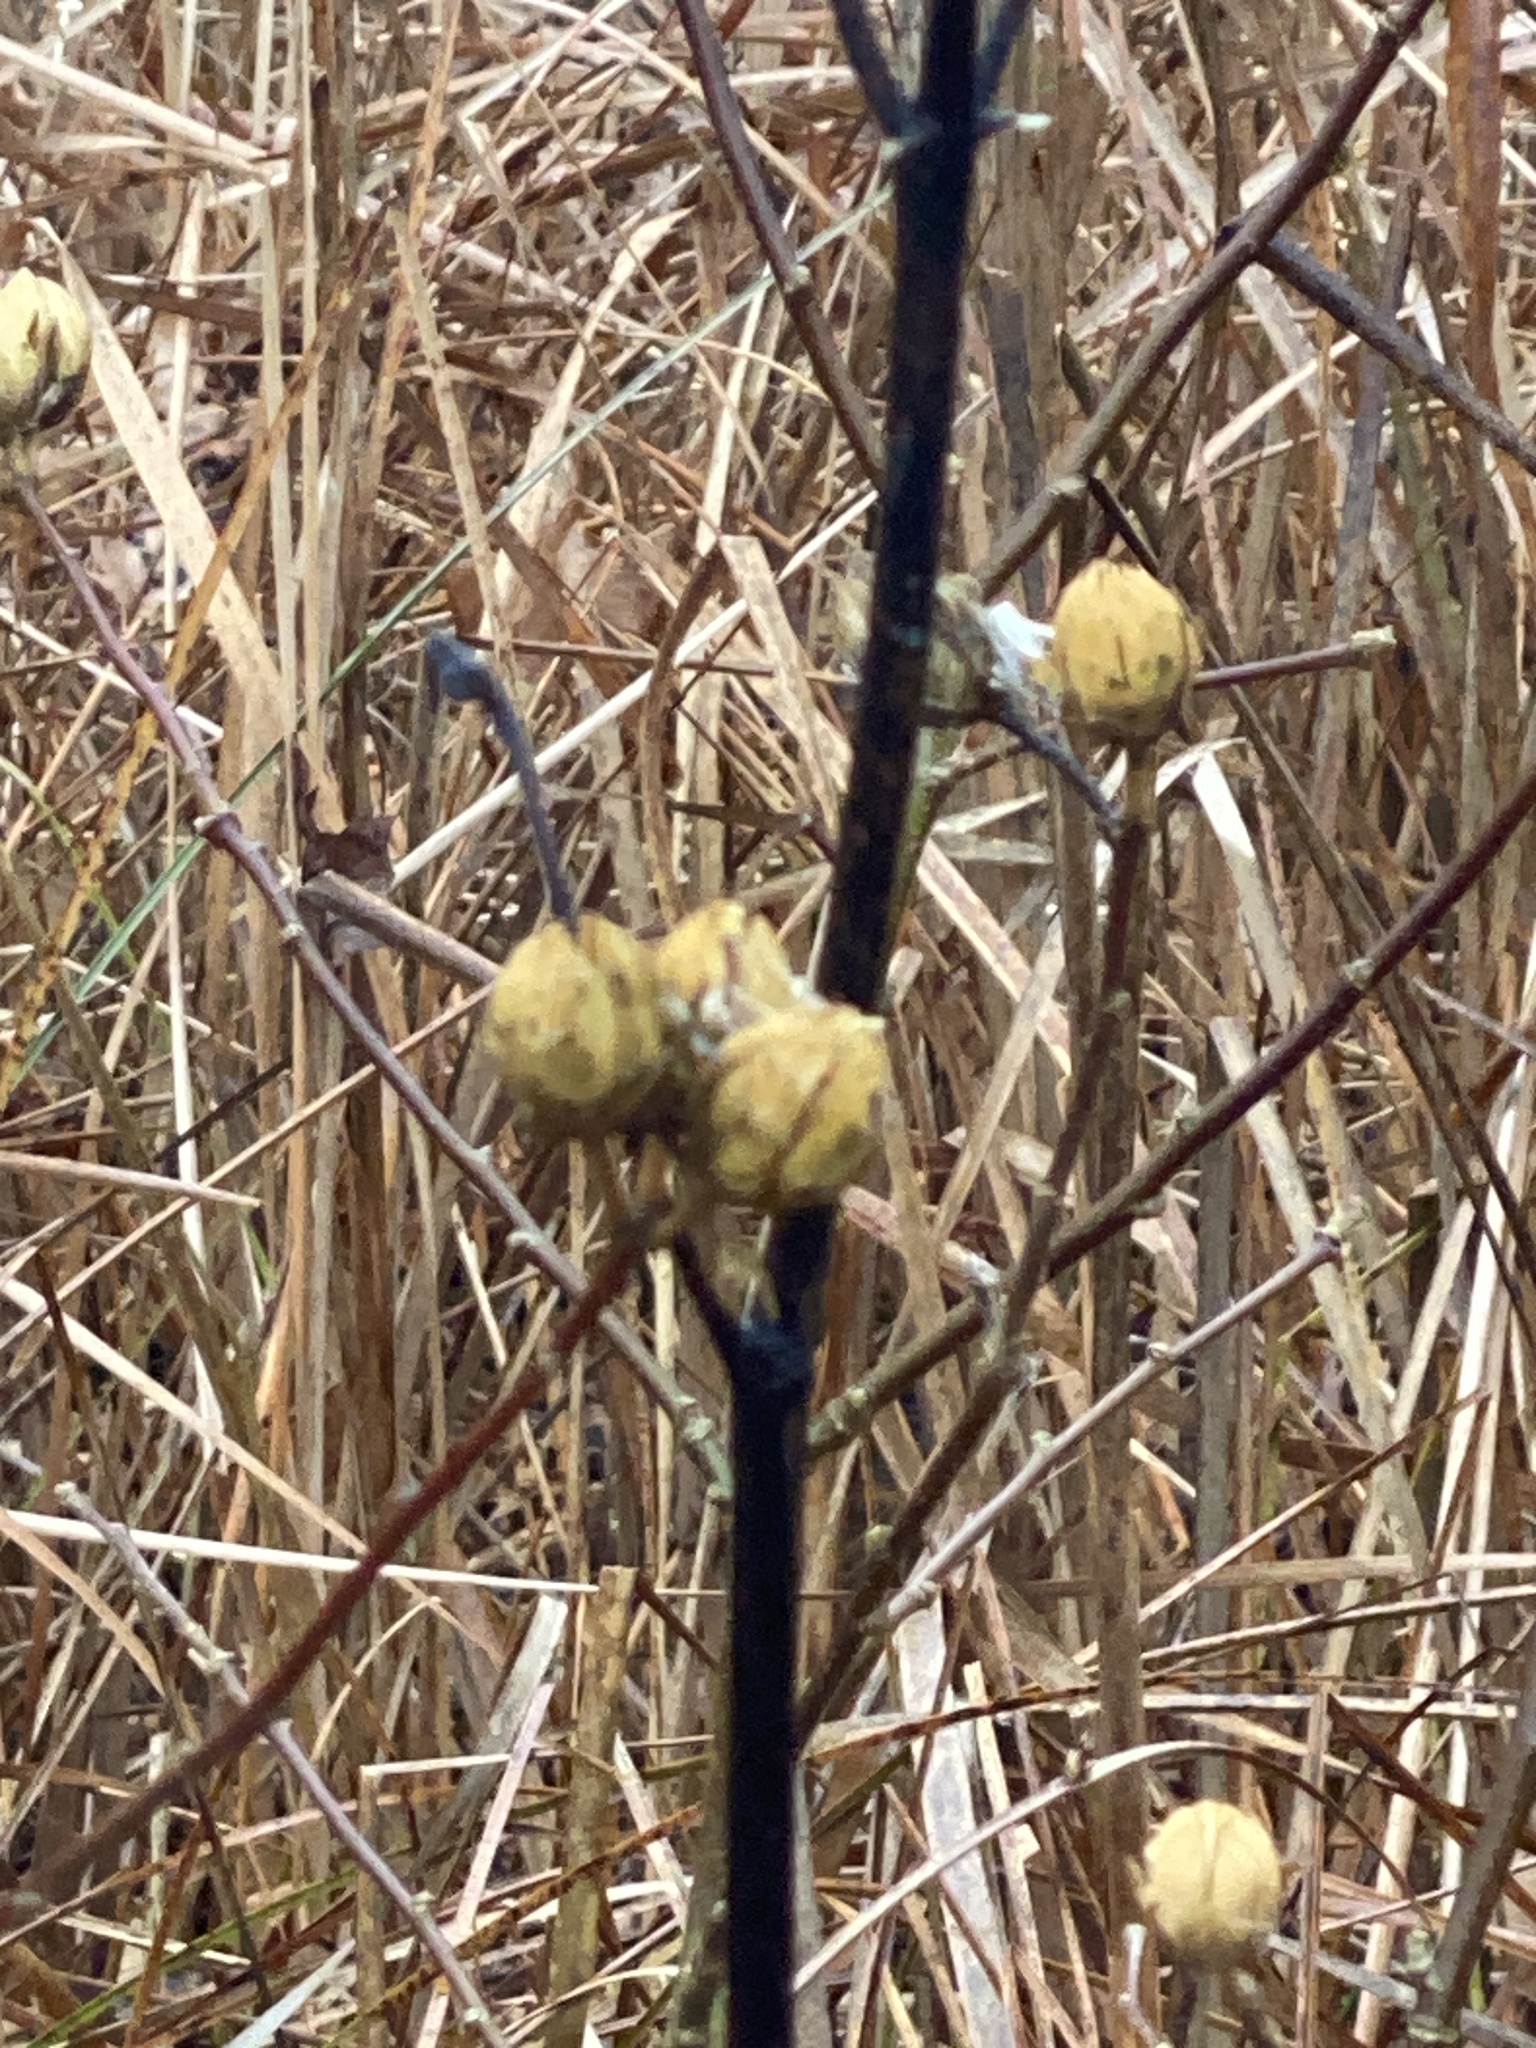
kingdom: Plantae
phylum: Tracheophyta
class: Magnoliopsida
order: Malvales
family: Malvaceae
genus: Hibiscus
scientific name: Hibiscus syriacus
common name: Syrian ketmia
